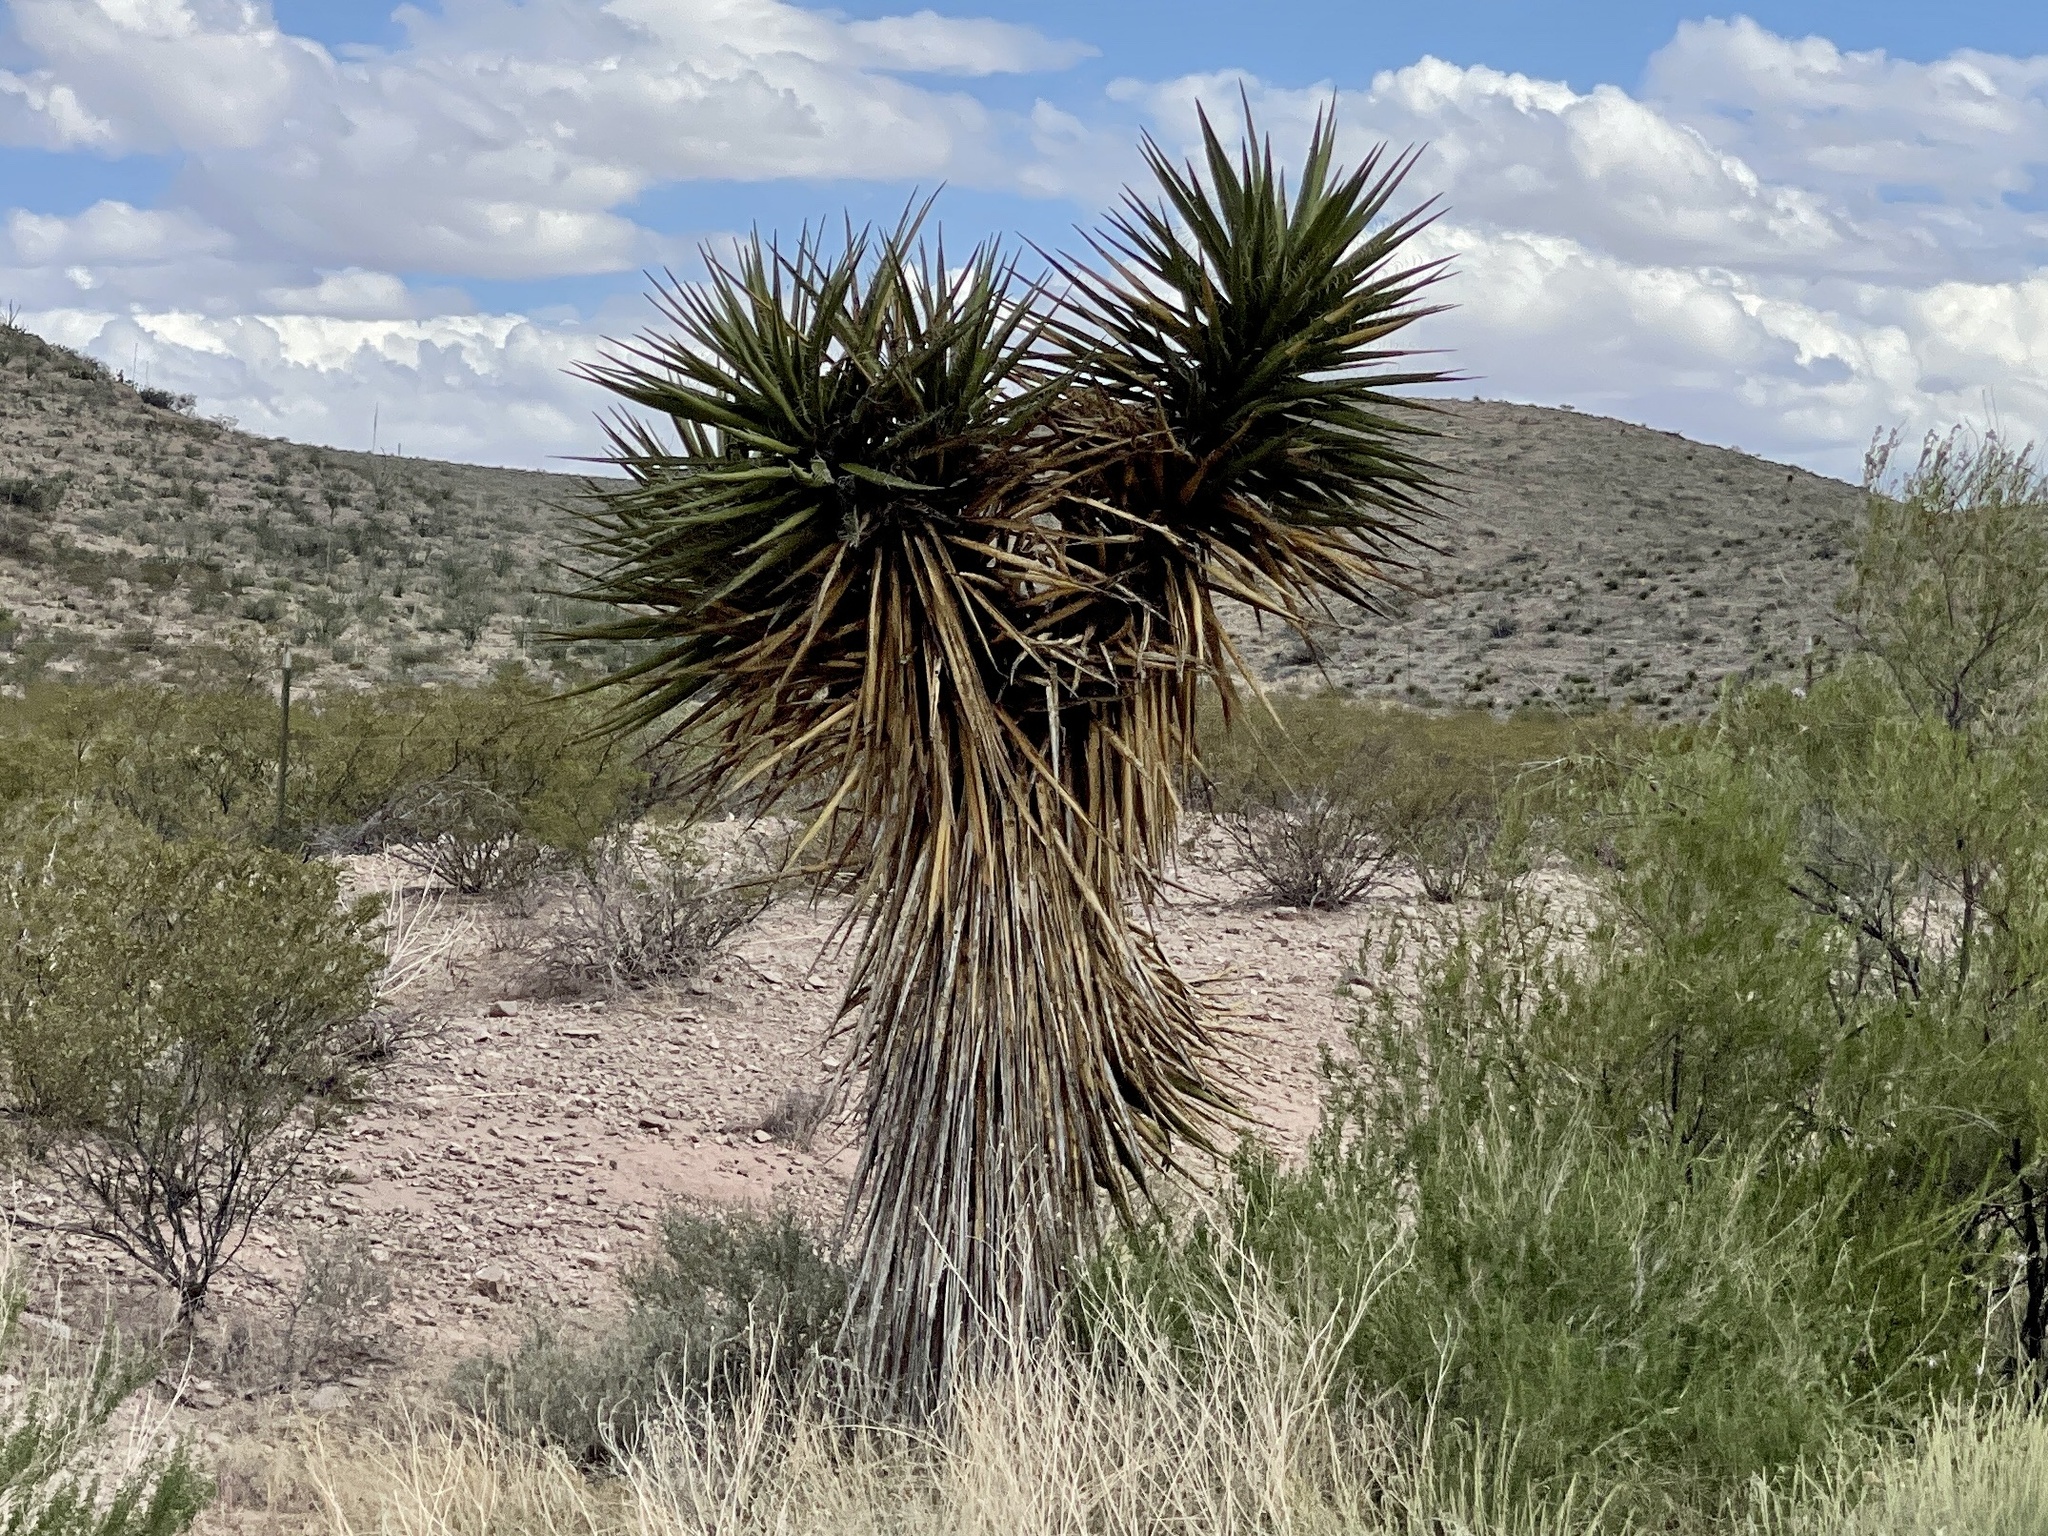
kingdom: Plantae
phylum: Tracheophyta
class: Liliopsida
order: Asparagales
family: Asparagaceae
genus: Yucca
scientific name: Yucca treculiana
